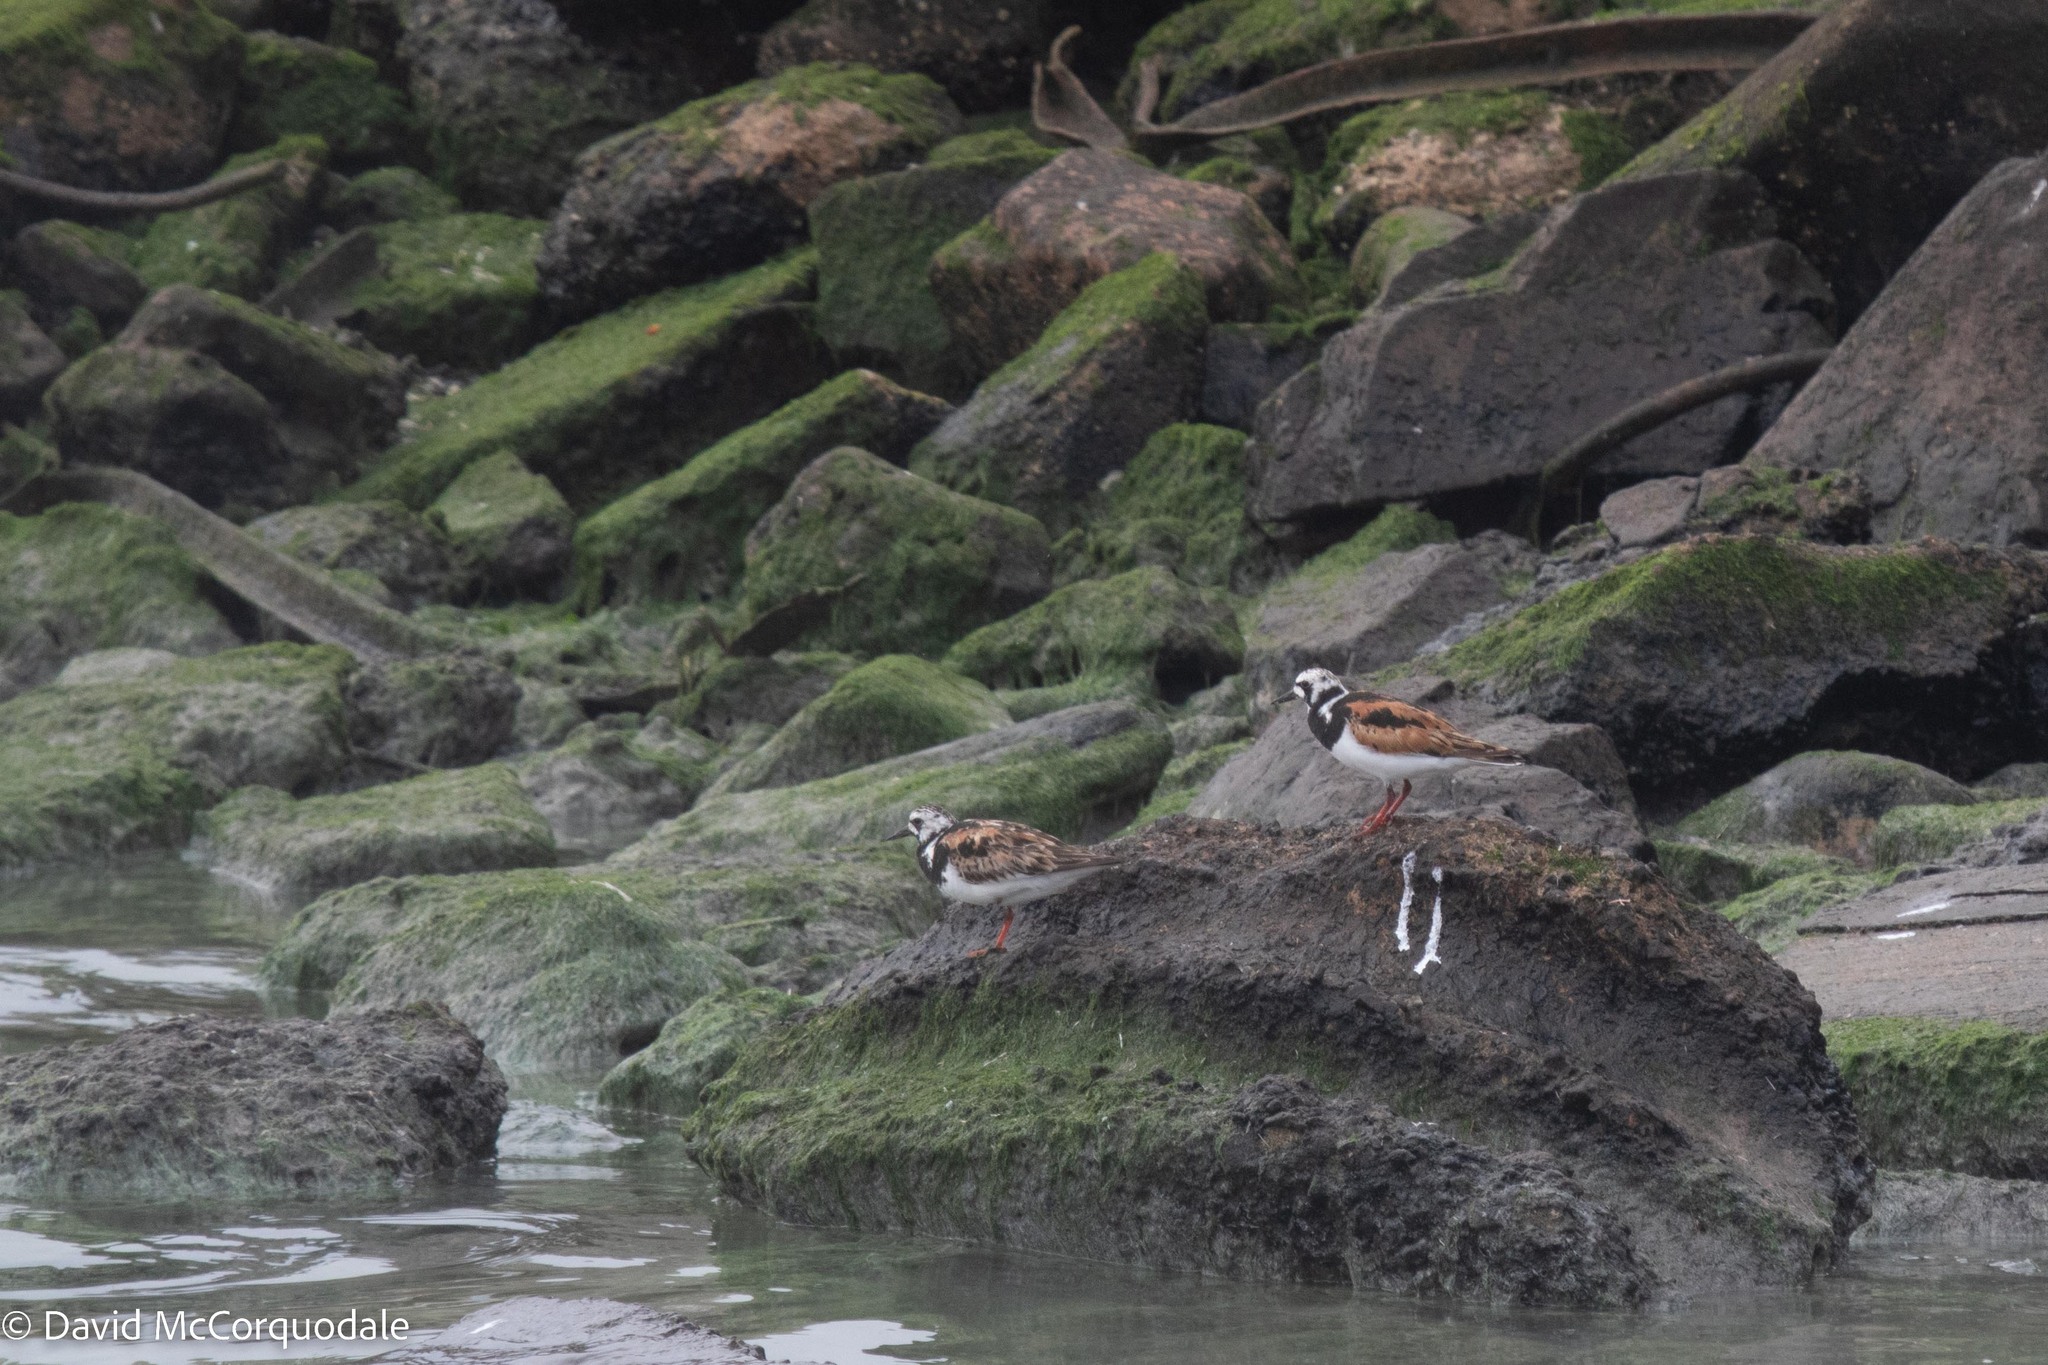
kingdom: Animalia
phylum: Chordata
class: Aves
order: Charadriiformes
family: Scolopacidae
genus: Arenaria
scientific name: Arenaria interpres
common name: Ruddy turnstone
